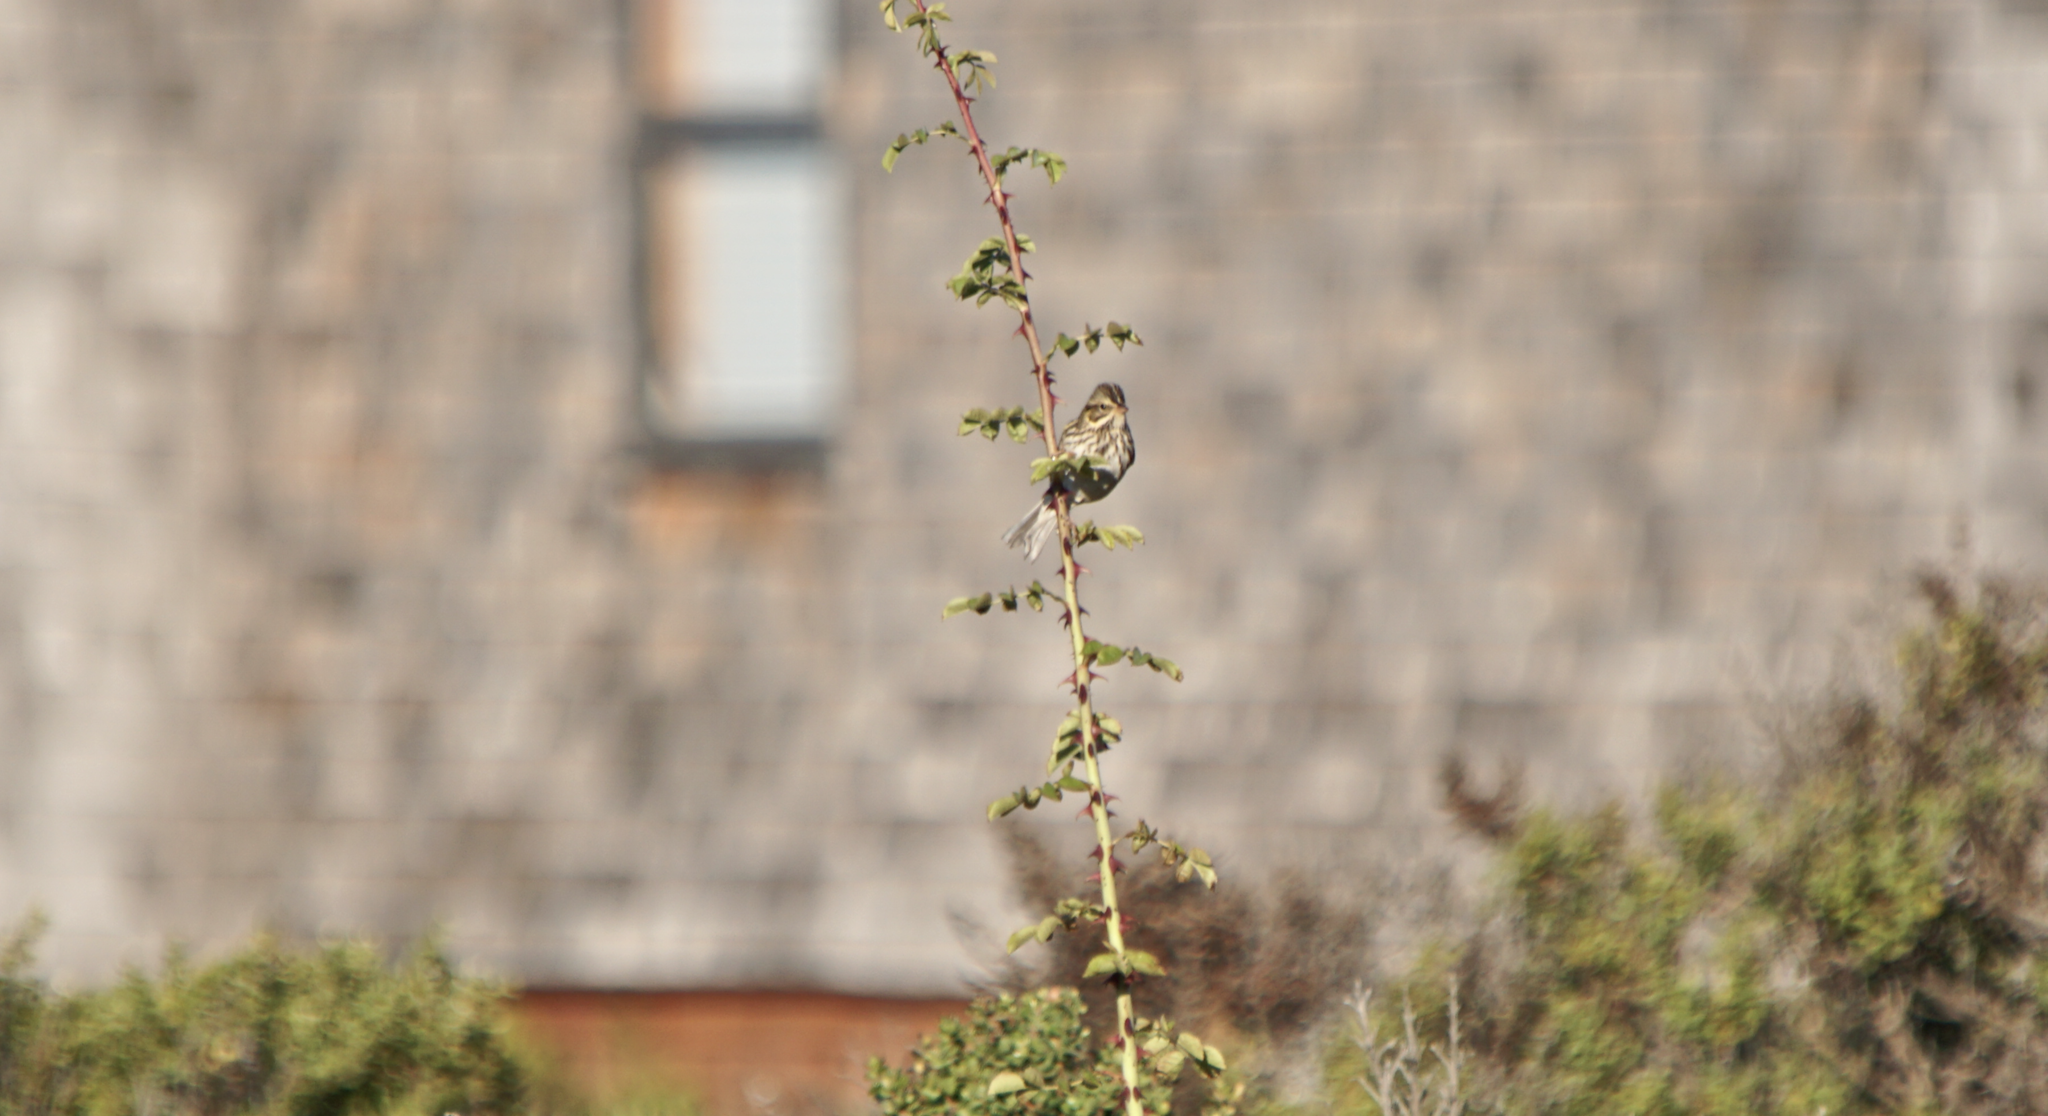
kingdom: Animalia
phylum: Chordata
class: Aves
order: Passeriformes
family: Passerellidae
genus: Passerculus
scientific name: Passerculus sandwichensis
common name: Savannah sparrow
